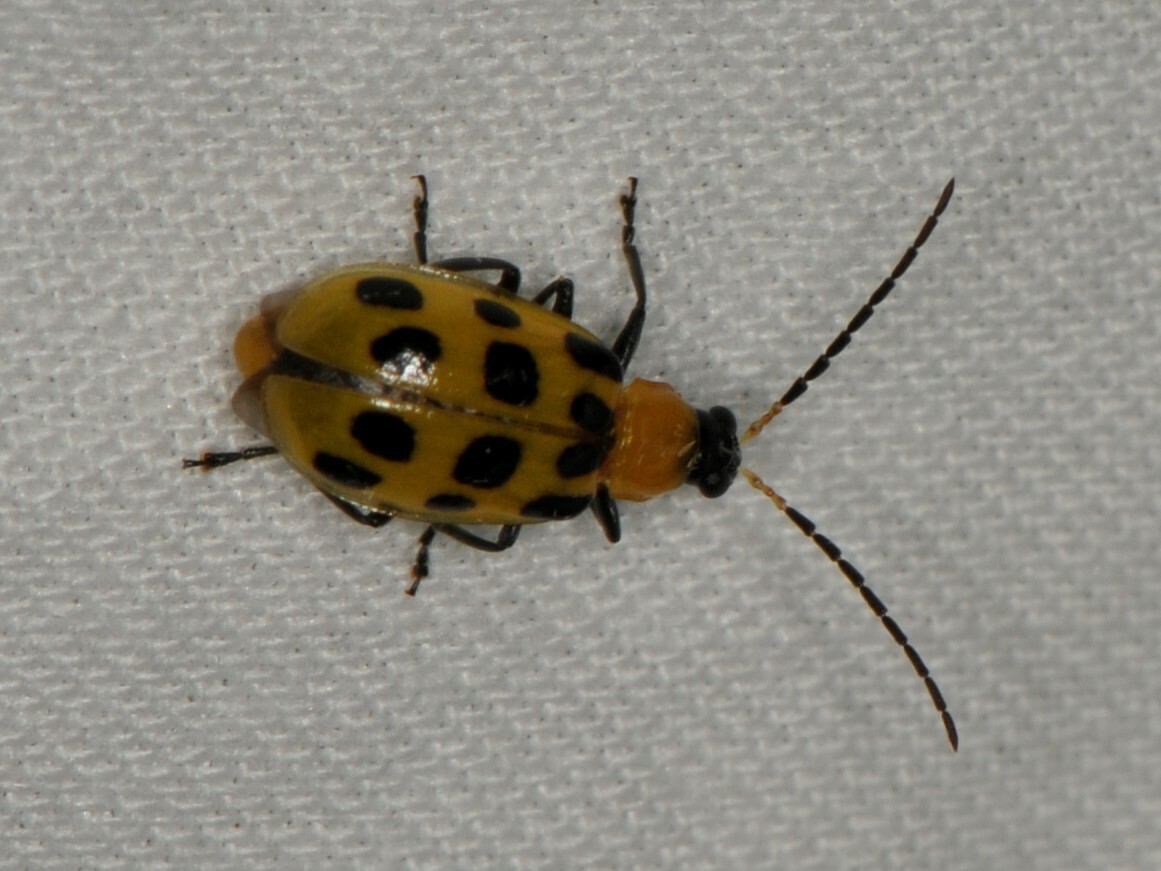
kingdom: Animalia
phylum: Arthropoda
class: Insecta
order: Coleoptera
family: Chrysomelidae
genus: Diabrotica
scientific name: Diabrotica undecimpunctata
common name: Spotted cucumber beetle
